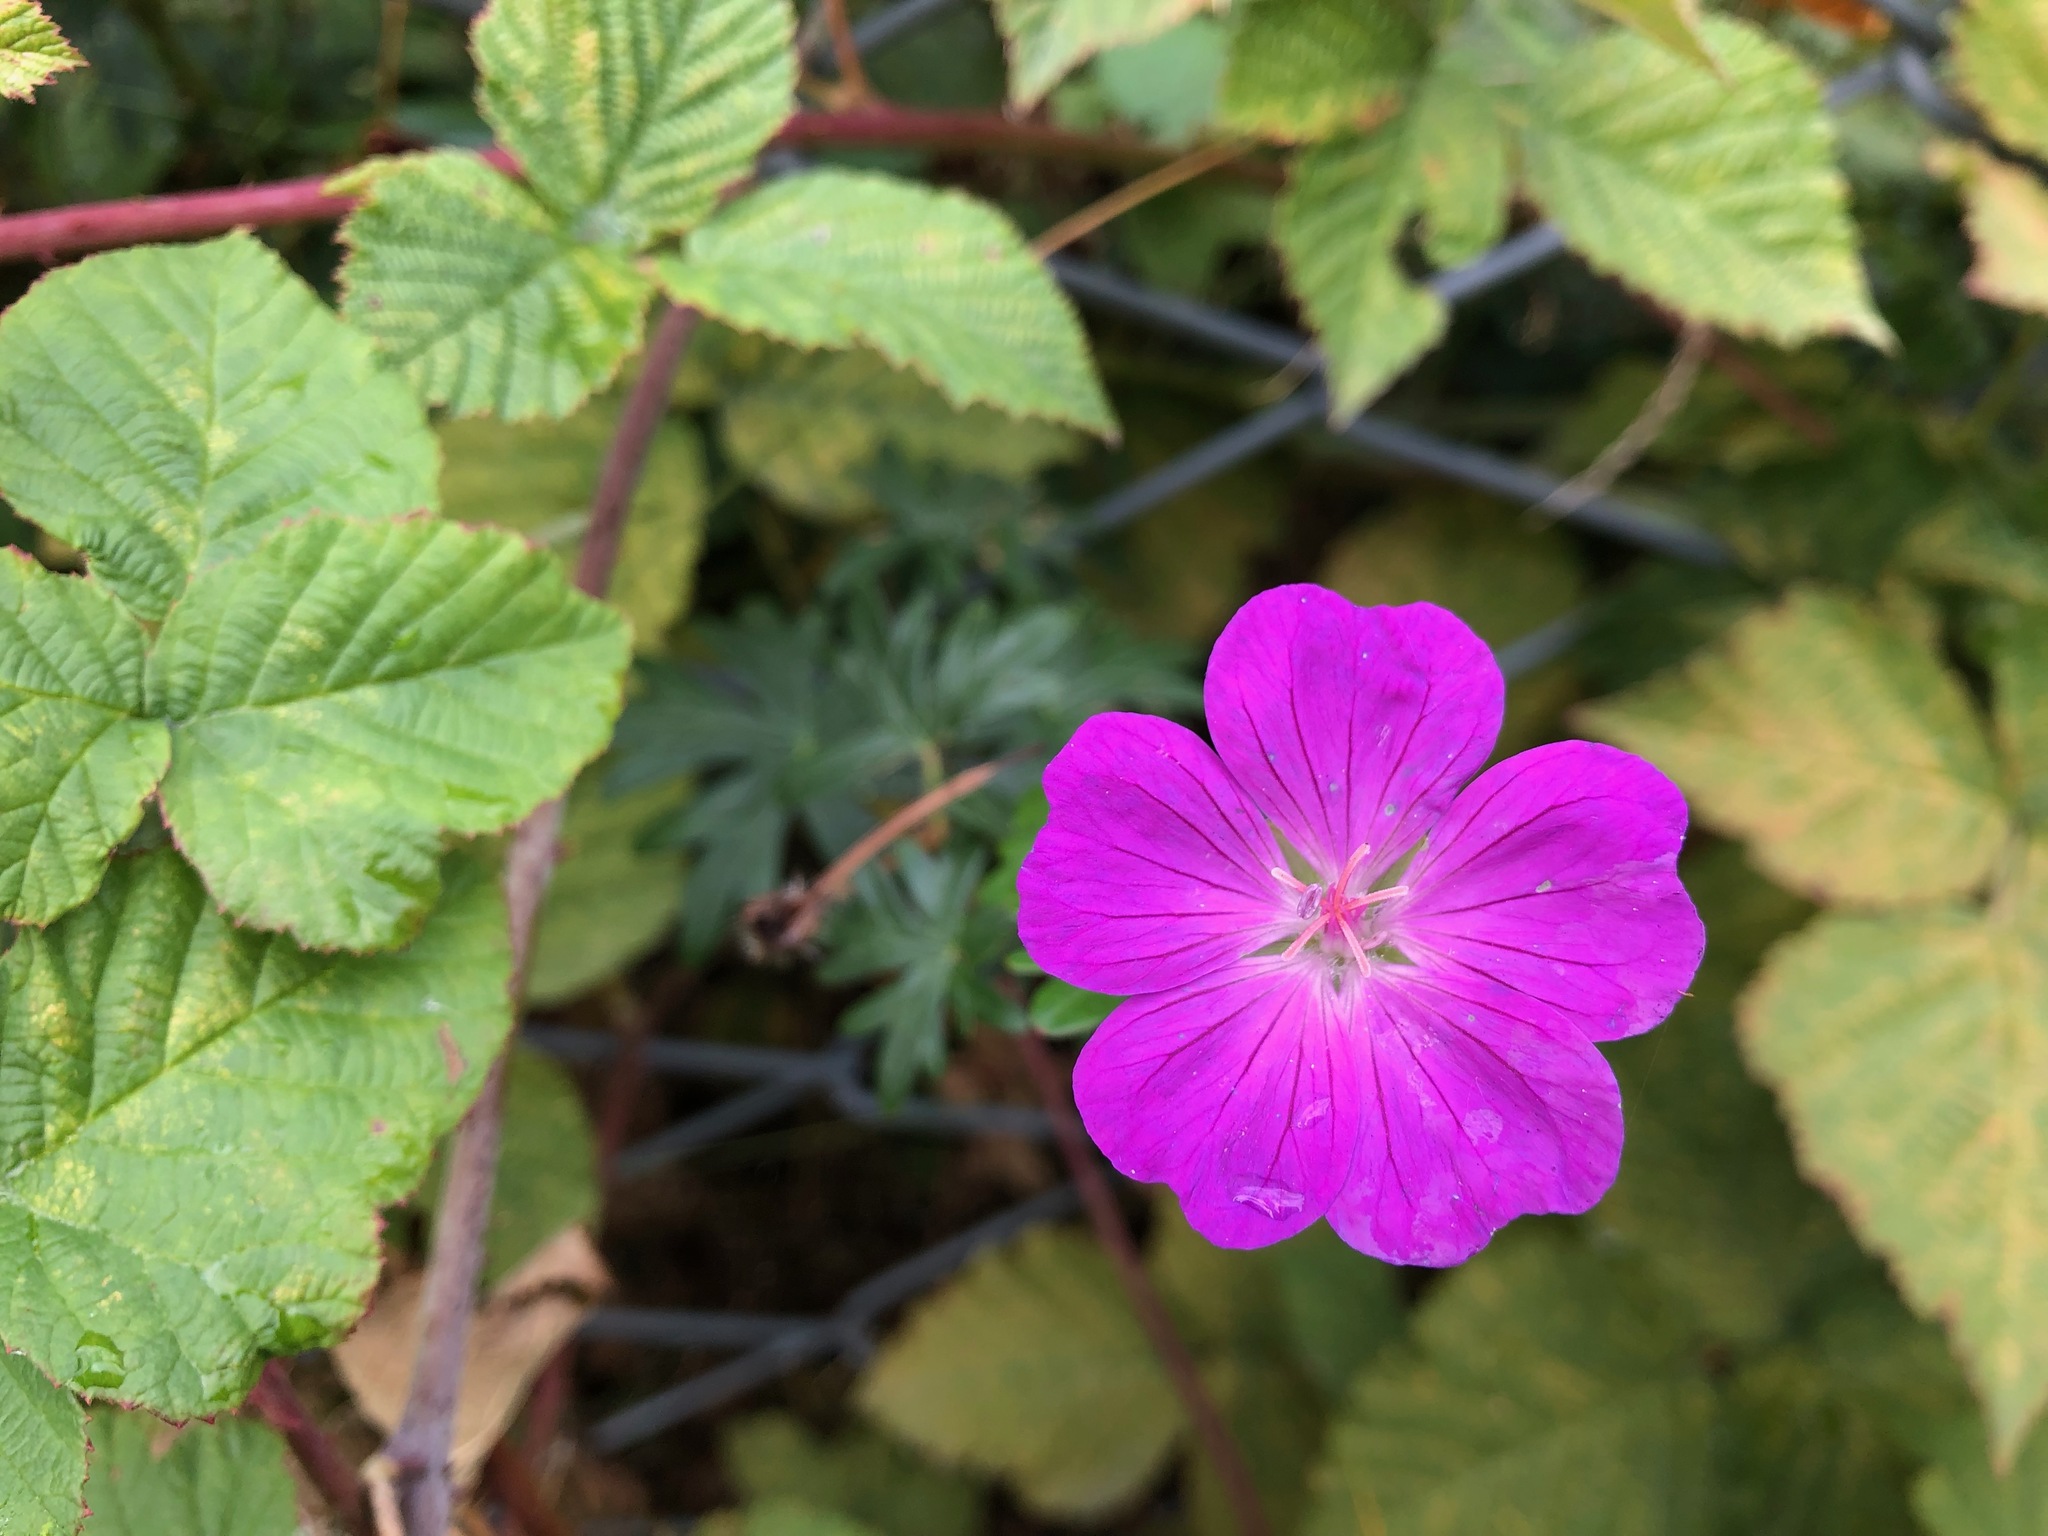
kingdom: Plantae
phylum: Tracheophyta
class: Magnoliopsida
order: Geraniales
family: Geraniaceae
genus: Geranium
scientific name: Geranium sanguineum
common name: Bloody crane's-bill
